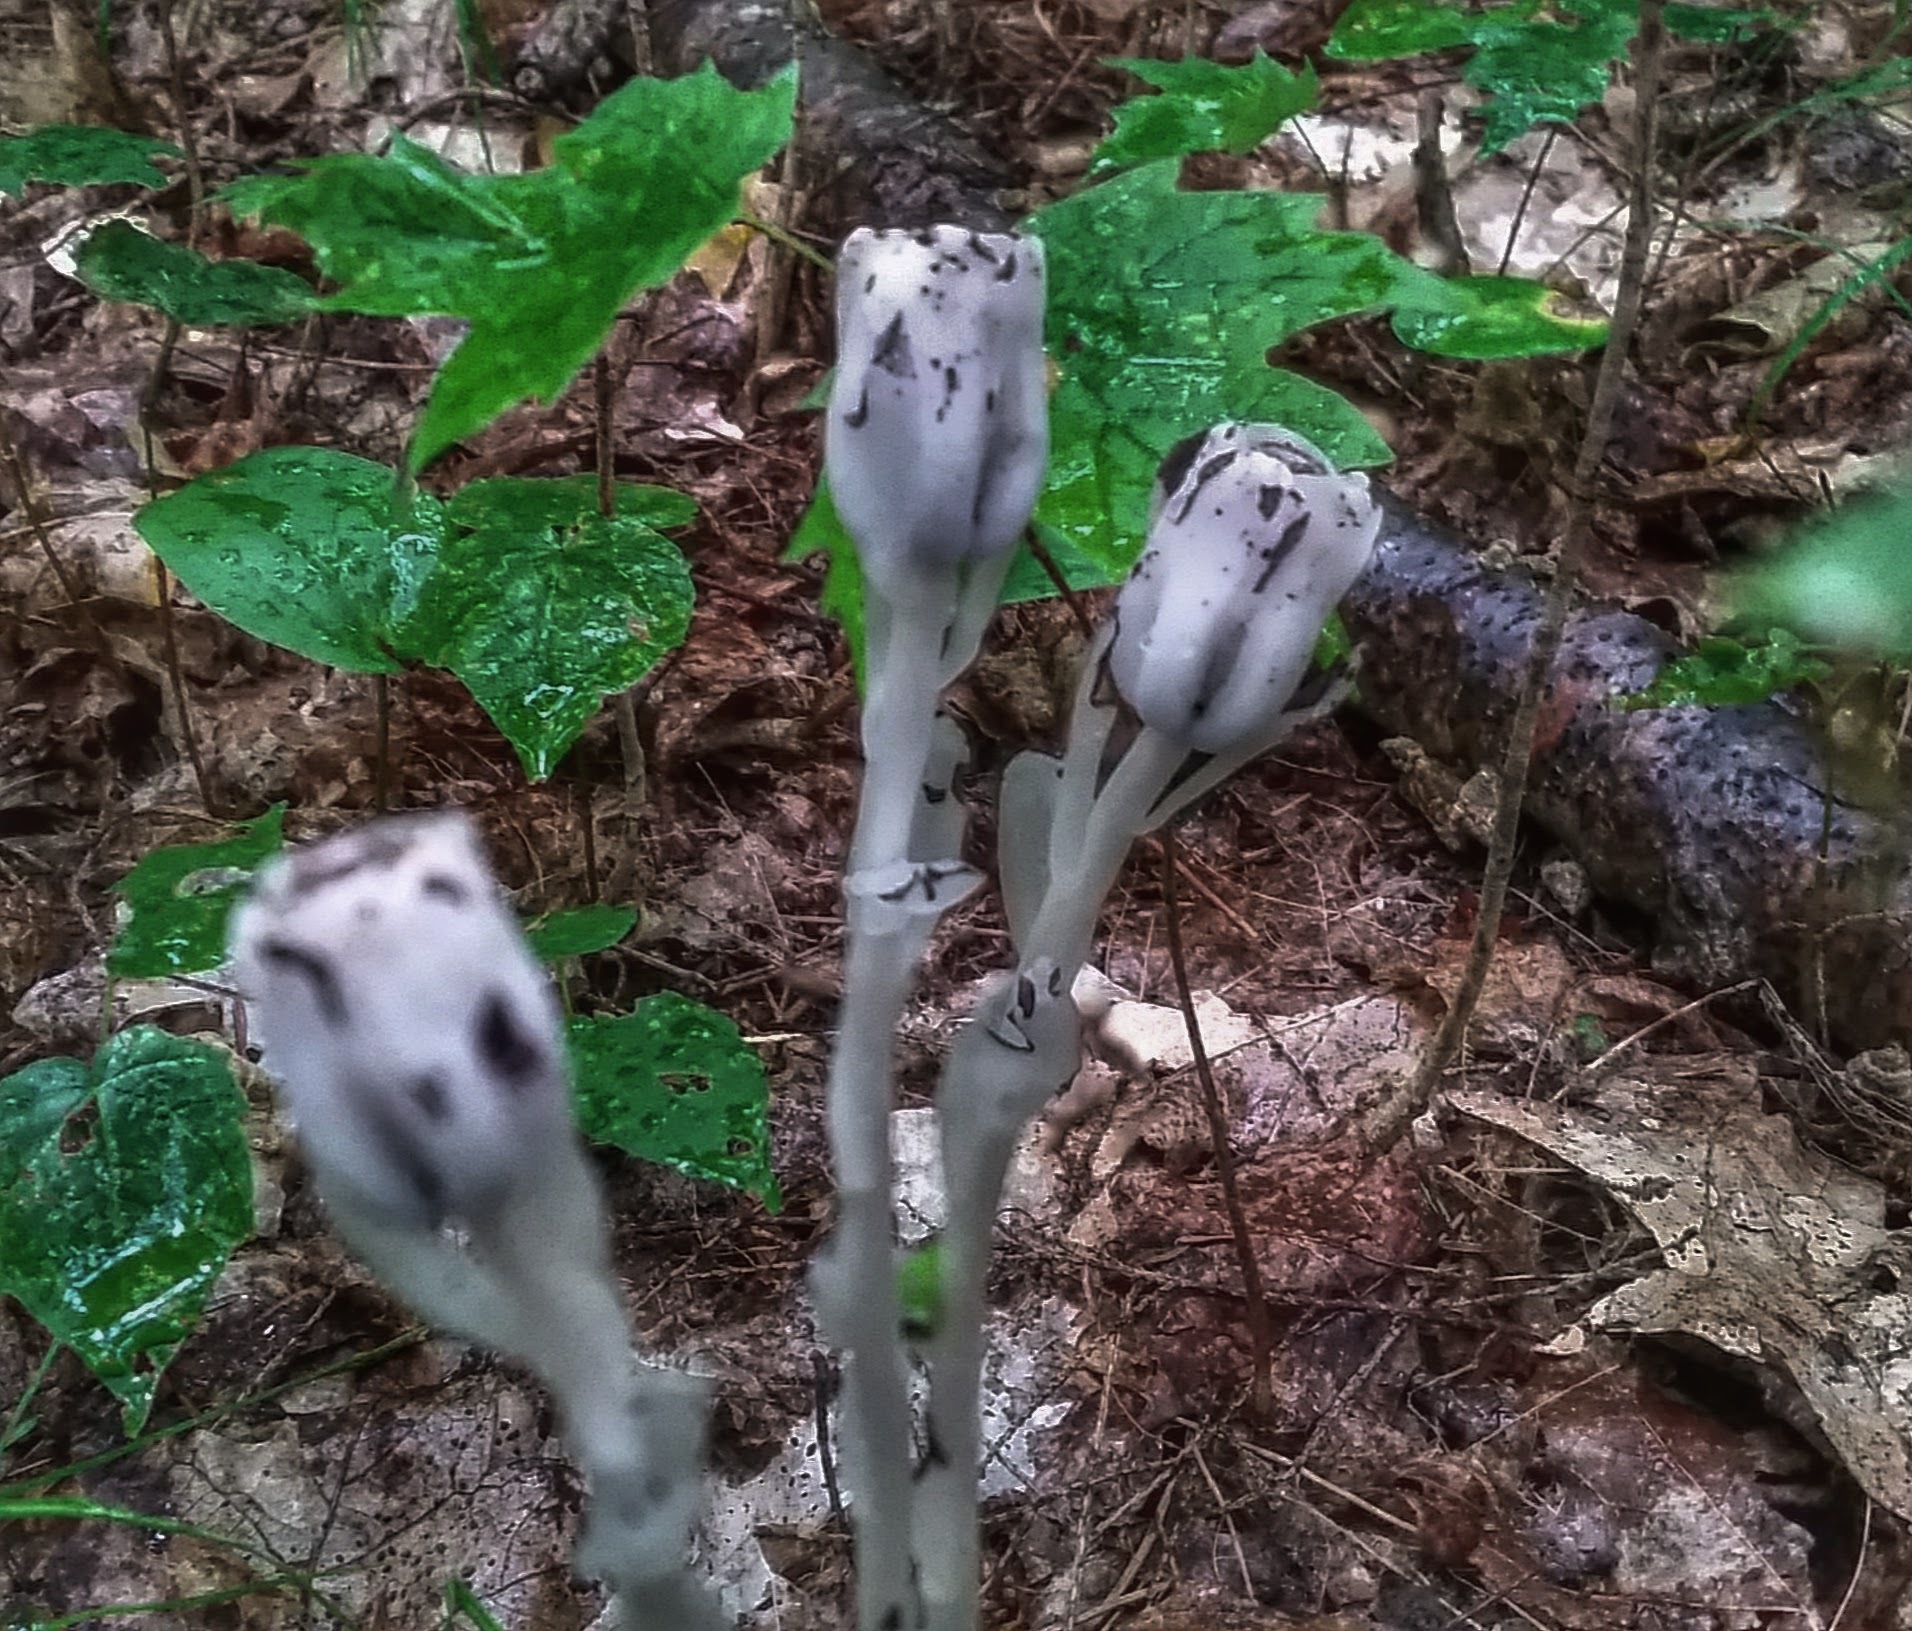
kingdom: Plantae
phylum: Tracheophyta
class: Magnoliopsida
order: Ericales
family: Ericaceae
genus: Monotropa
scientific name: Monotropa uniflora
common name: Convulsion root
